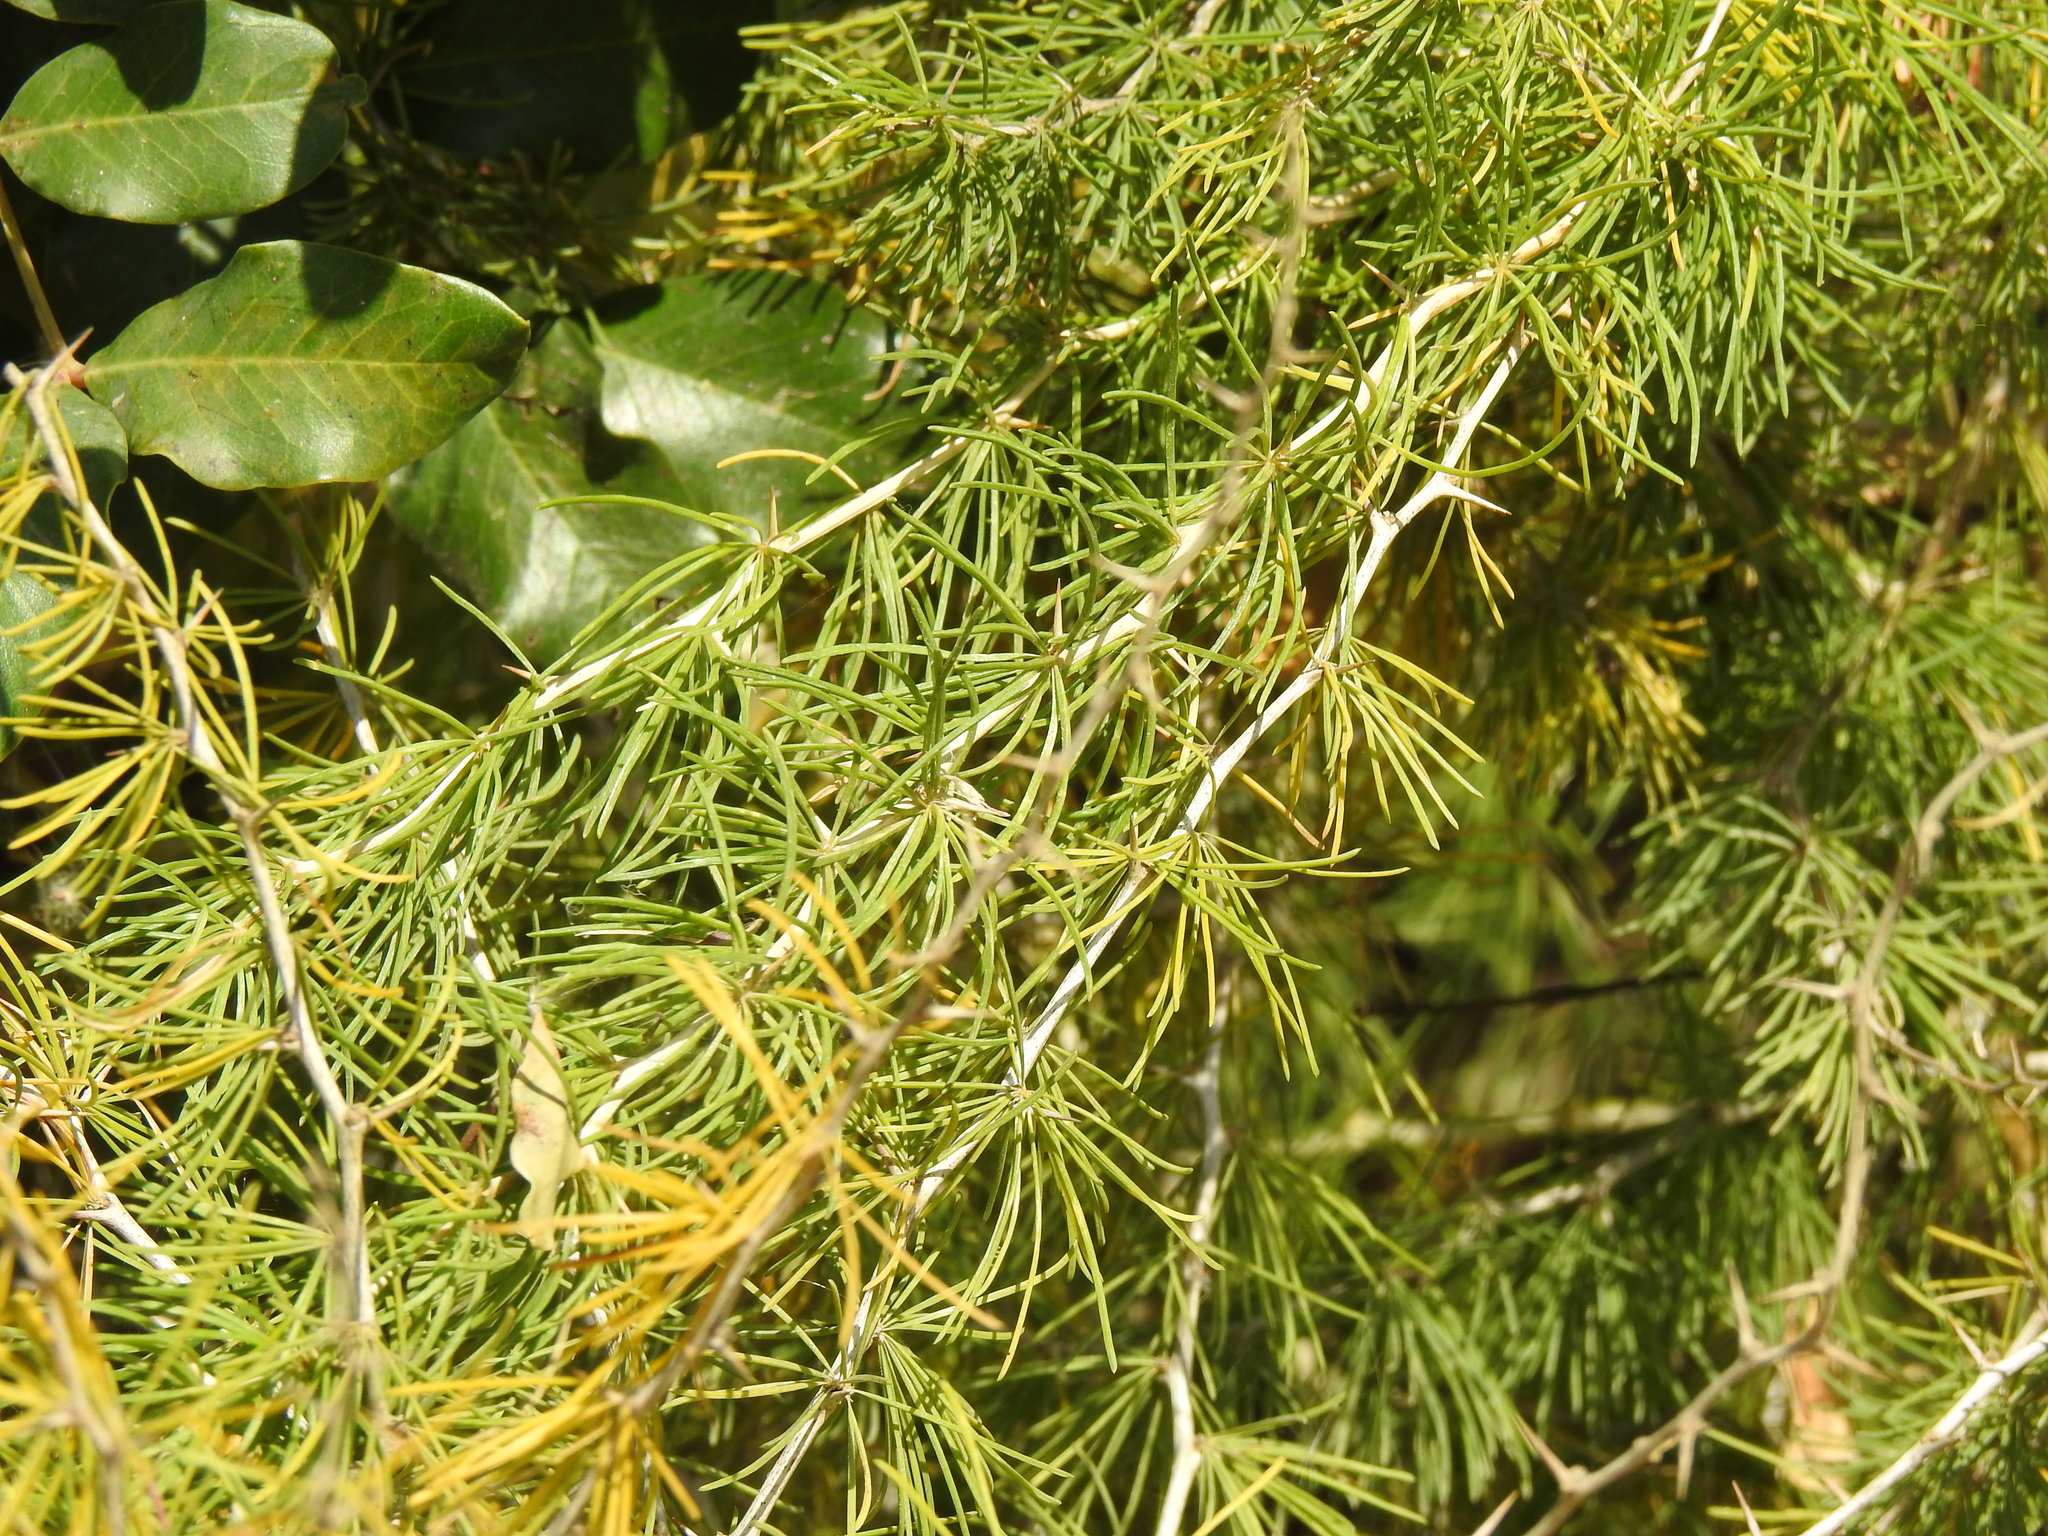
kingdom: Plantae
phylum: Tracheophyta
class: Liliopsida
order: Asparagales
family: Asparagaceae
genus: Asparagus
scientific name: Asparagus albus
